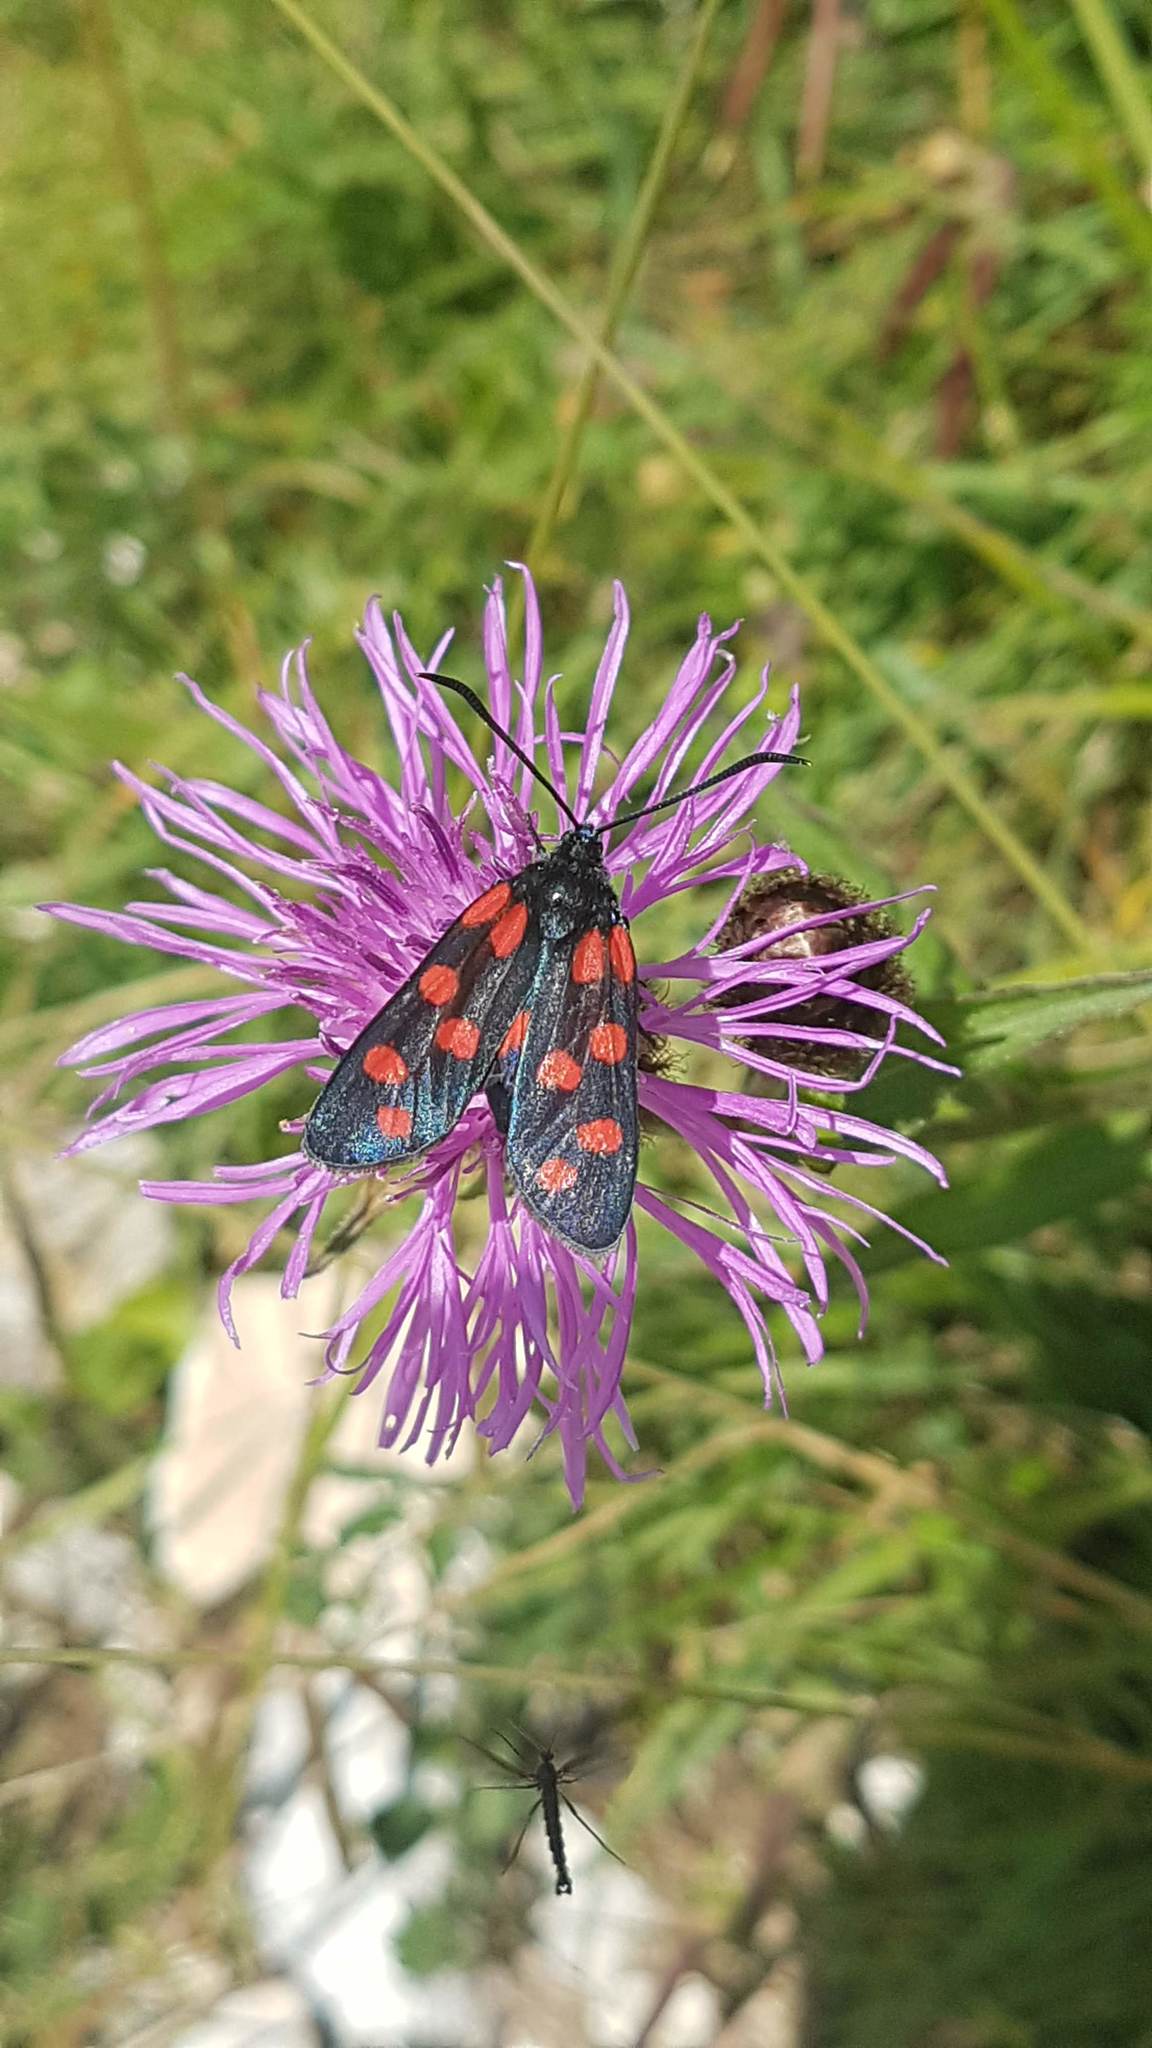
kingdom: Animalia
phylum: Arthropoda
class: Insecta
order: Lepidoptera
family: Zygaenidae
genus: Zygaena
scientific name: Zygaena transalpina
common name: Southern six spot burnet
